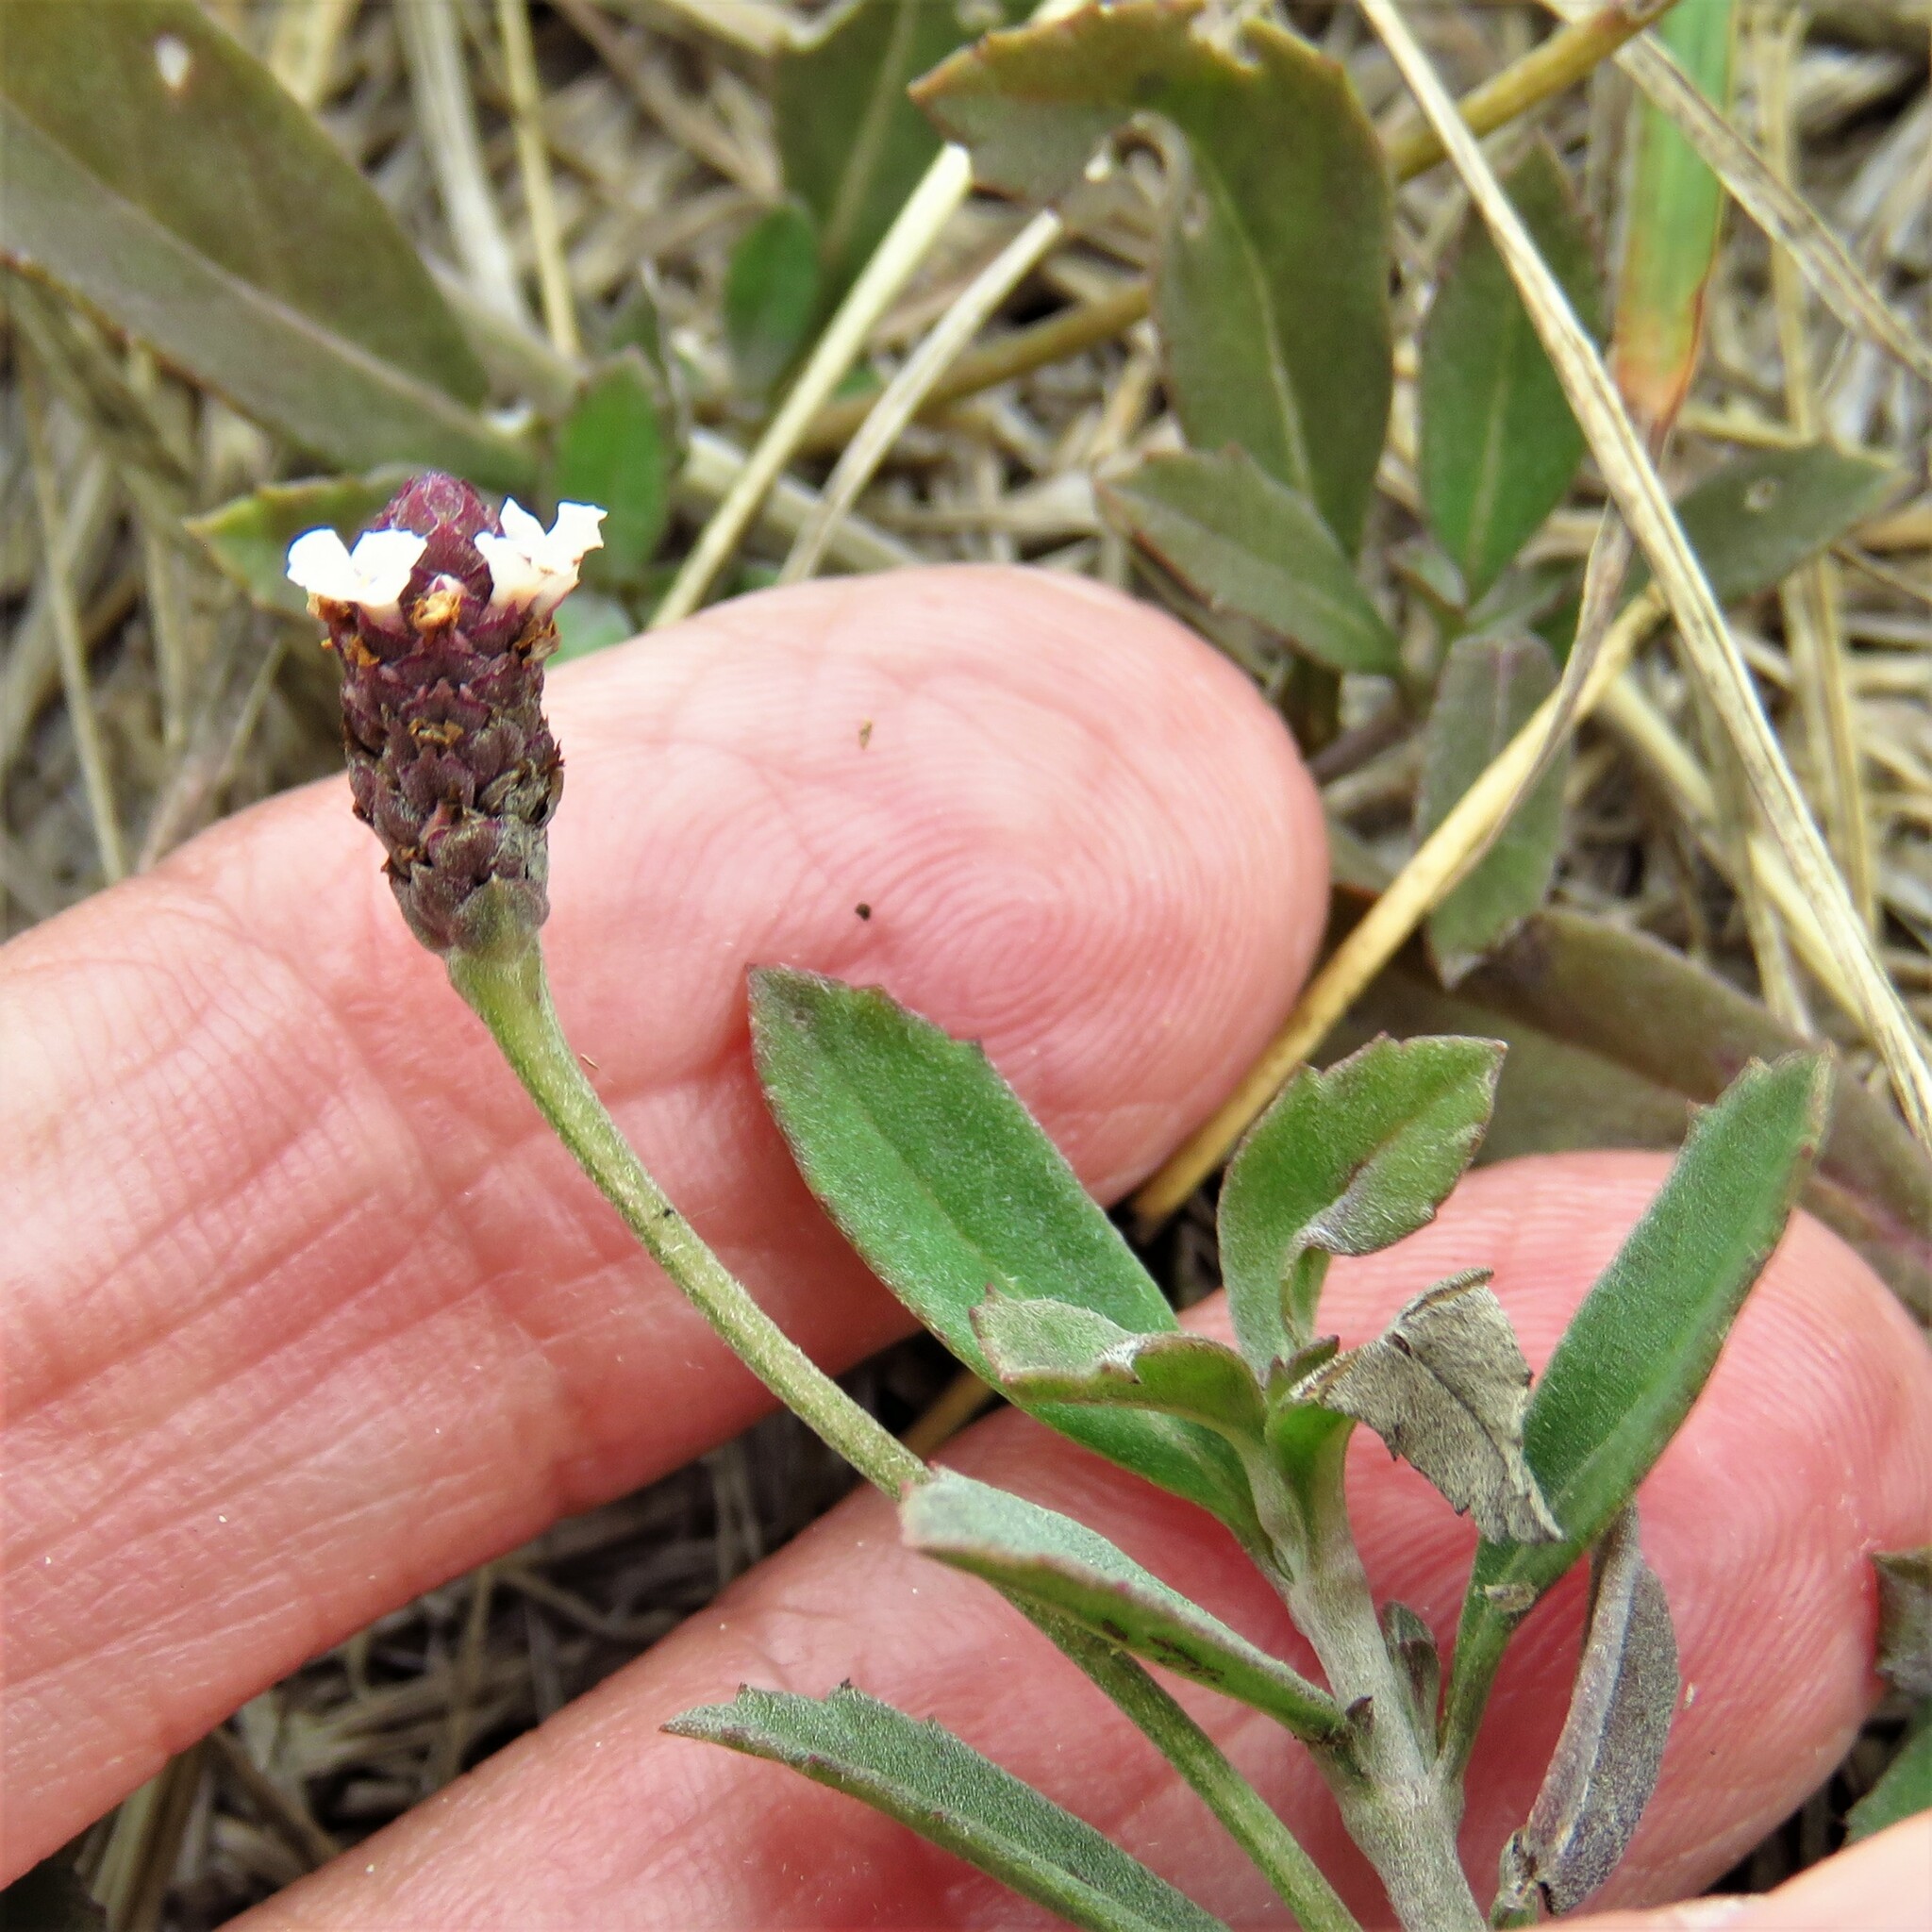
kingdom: Plantae
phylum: Tracheophyta
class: Magnoliopsida
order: Lamiales
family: Verbenaceae
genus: Phyla
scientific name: Phyla nodiflora
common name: Frogfruit
